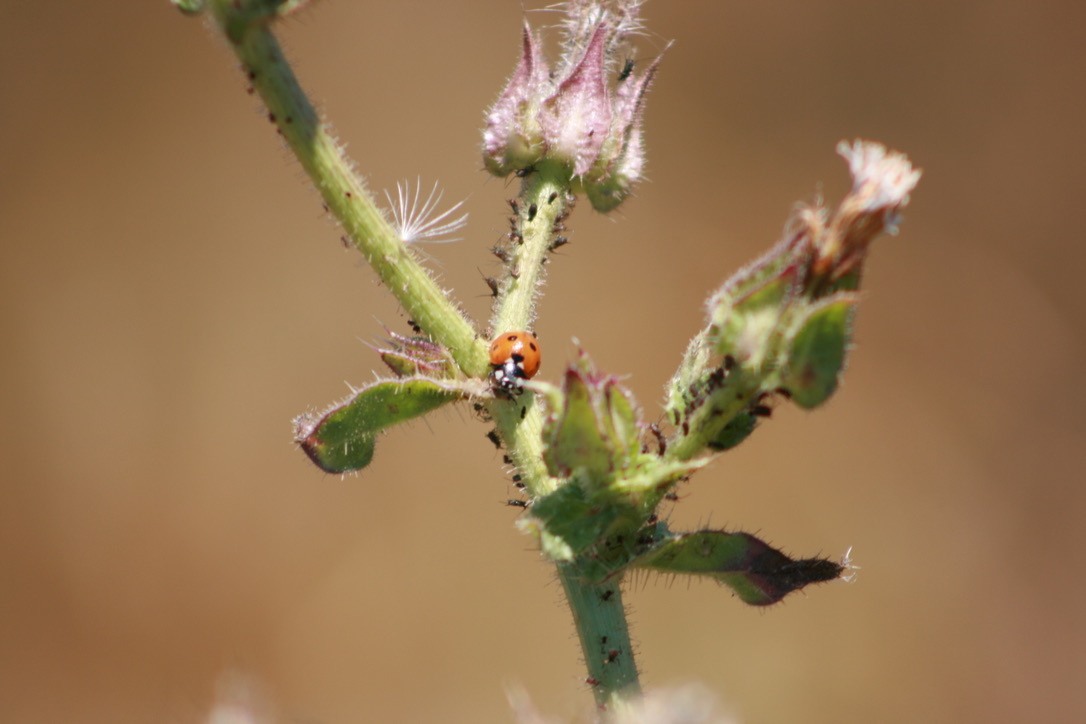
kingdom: Animalia
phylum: Arthropoda
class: Insecta
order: Coleoptera
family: Coccinellidae
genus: Coccinella
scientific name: Coccinella septempunctata
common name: Sevenspotted lady beetle
